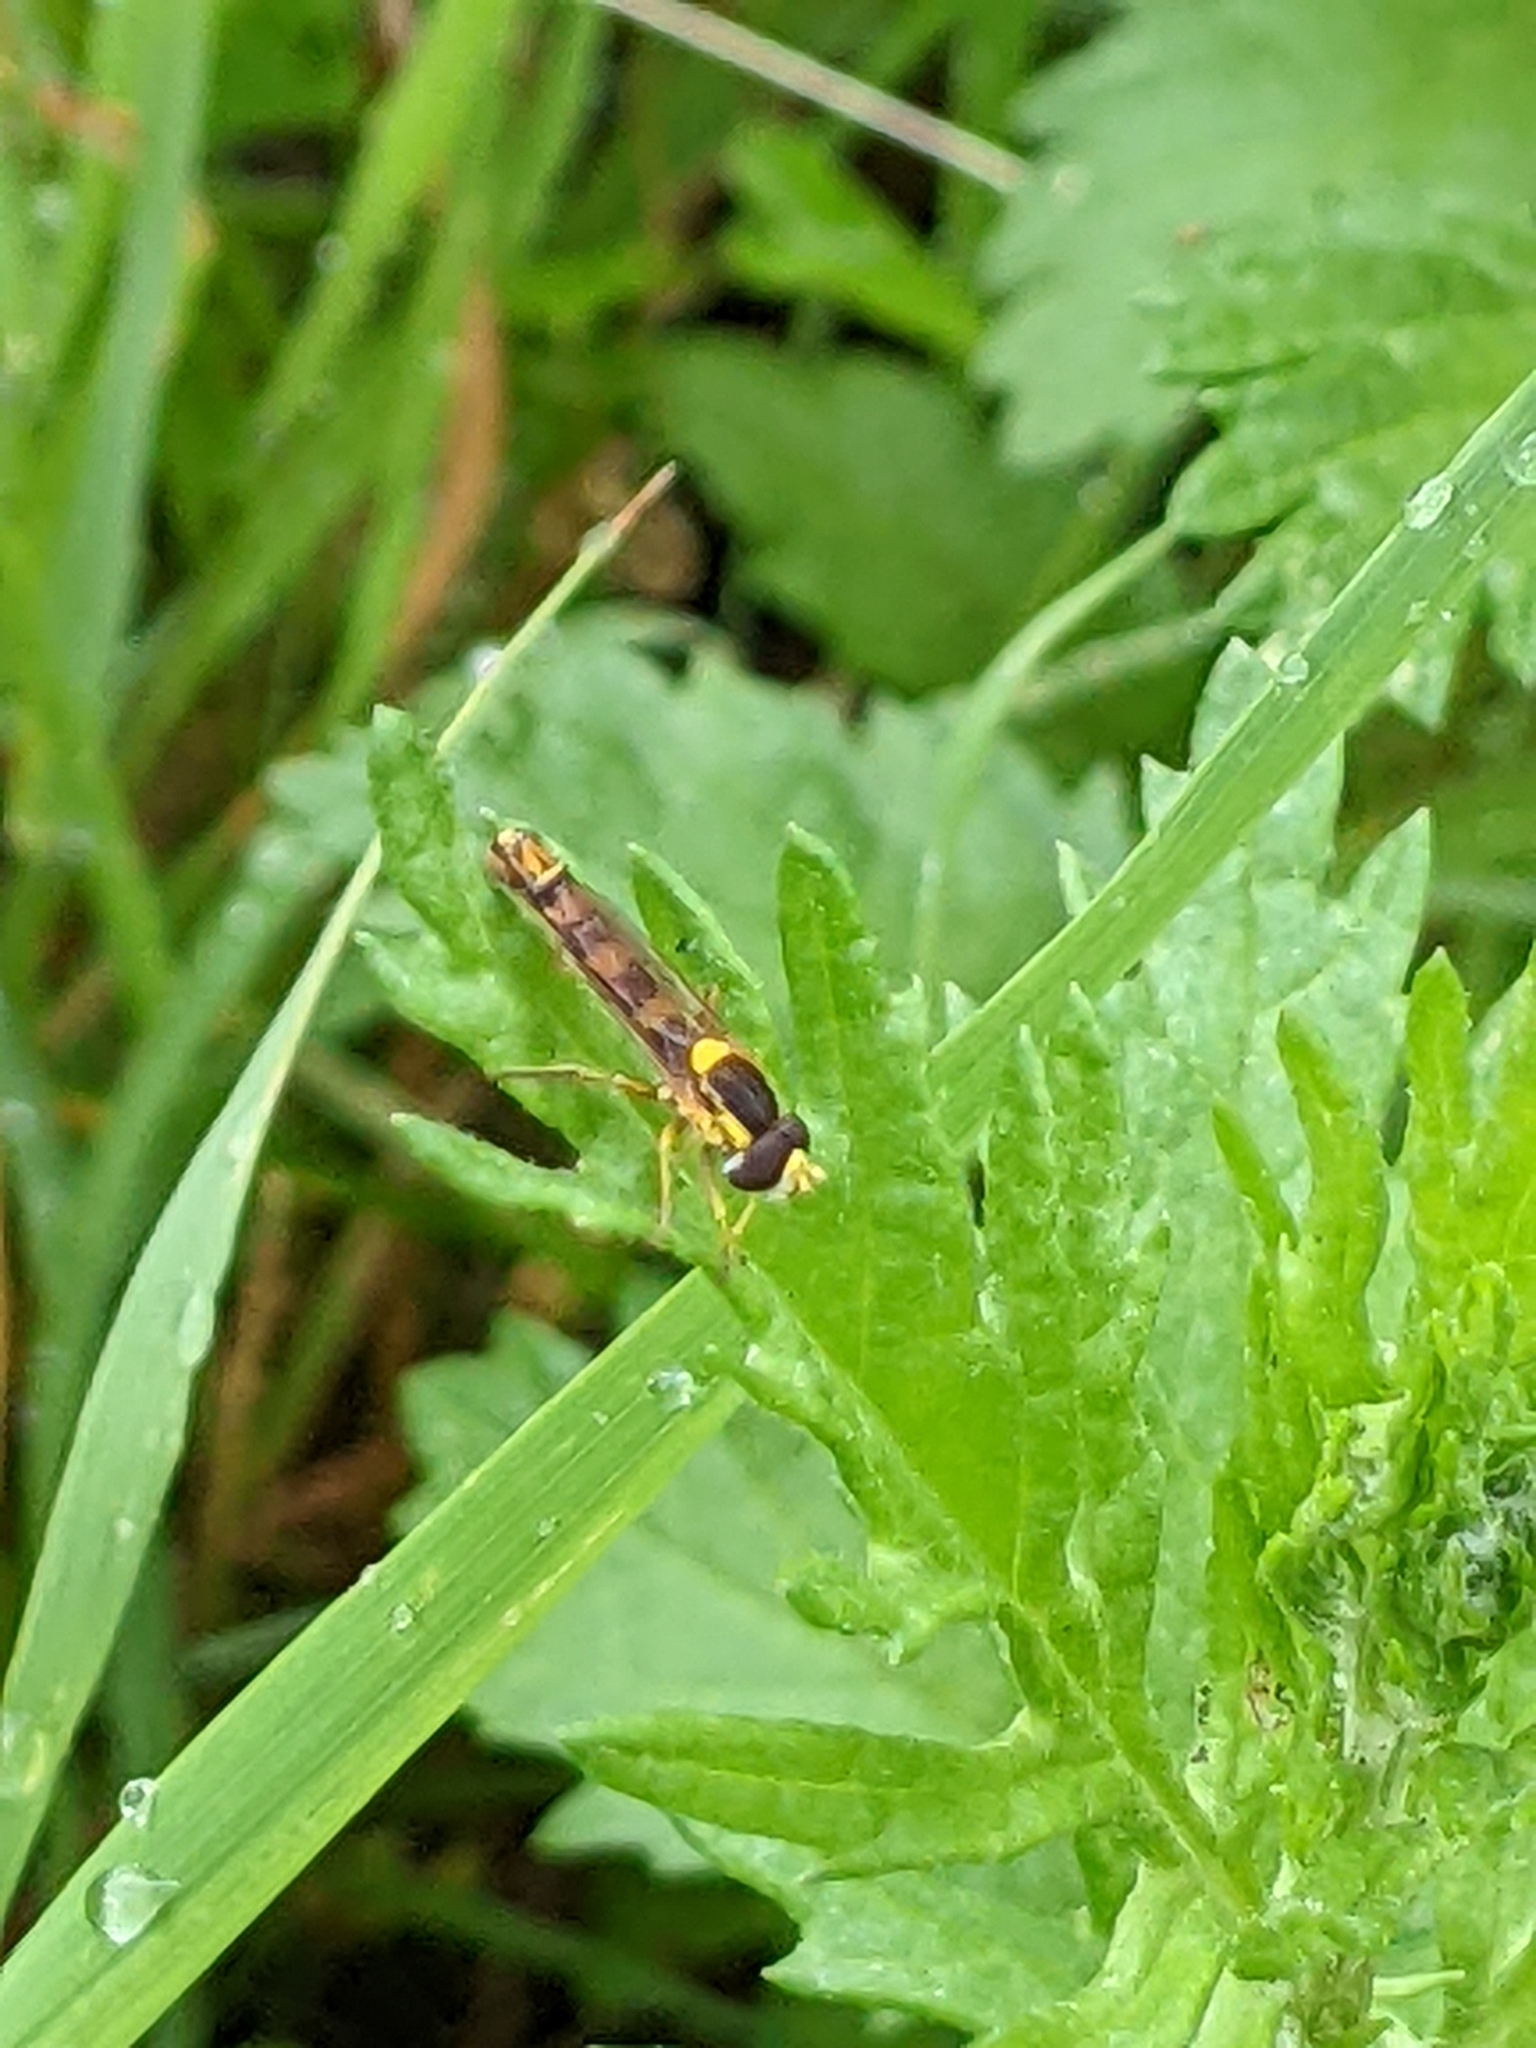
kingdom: Animalia
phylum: Arthropoda
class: Insecta
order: Diptera
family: Syrphidae
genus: Sphaerophoria
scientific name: Sphaerophoria scripta
